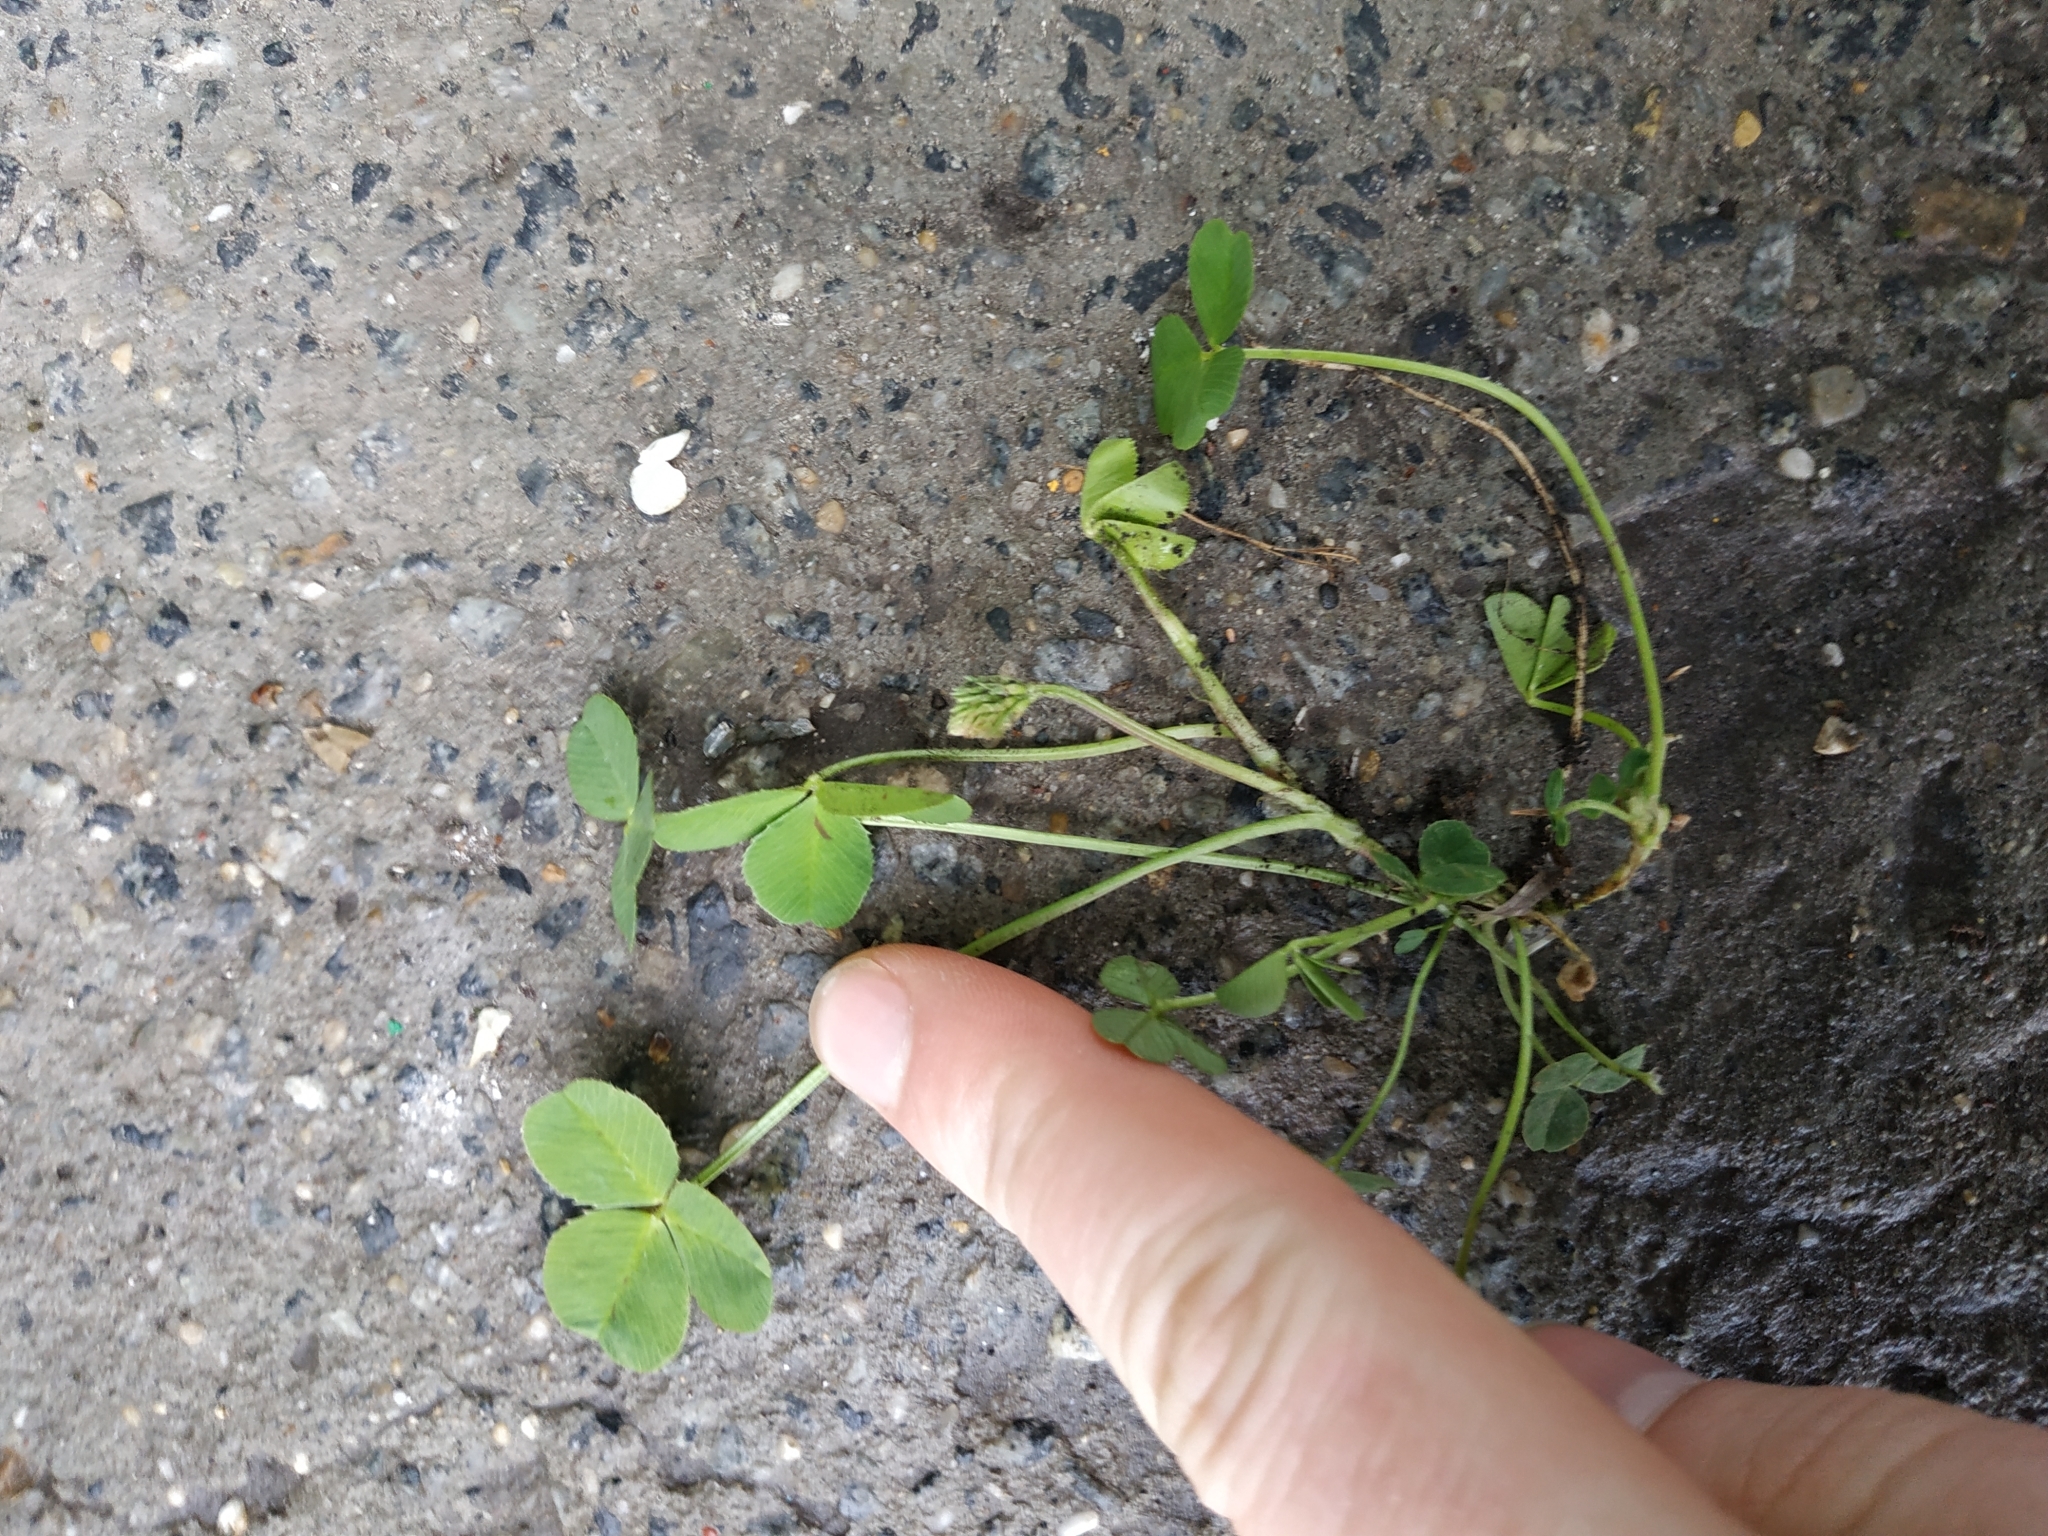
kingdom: Plantae
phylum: Tracheophyta
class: Magnoliopsida
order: Fabales
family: Fabaceae
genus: Trifolium
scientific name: Trifolium repens
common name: White clover
